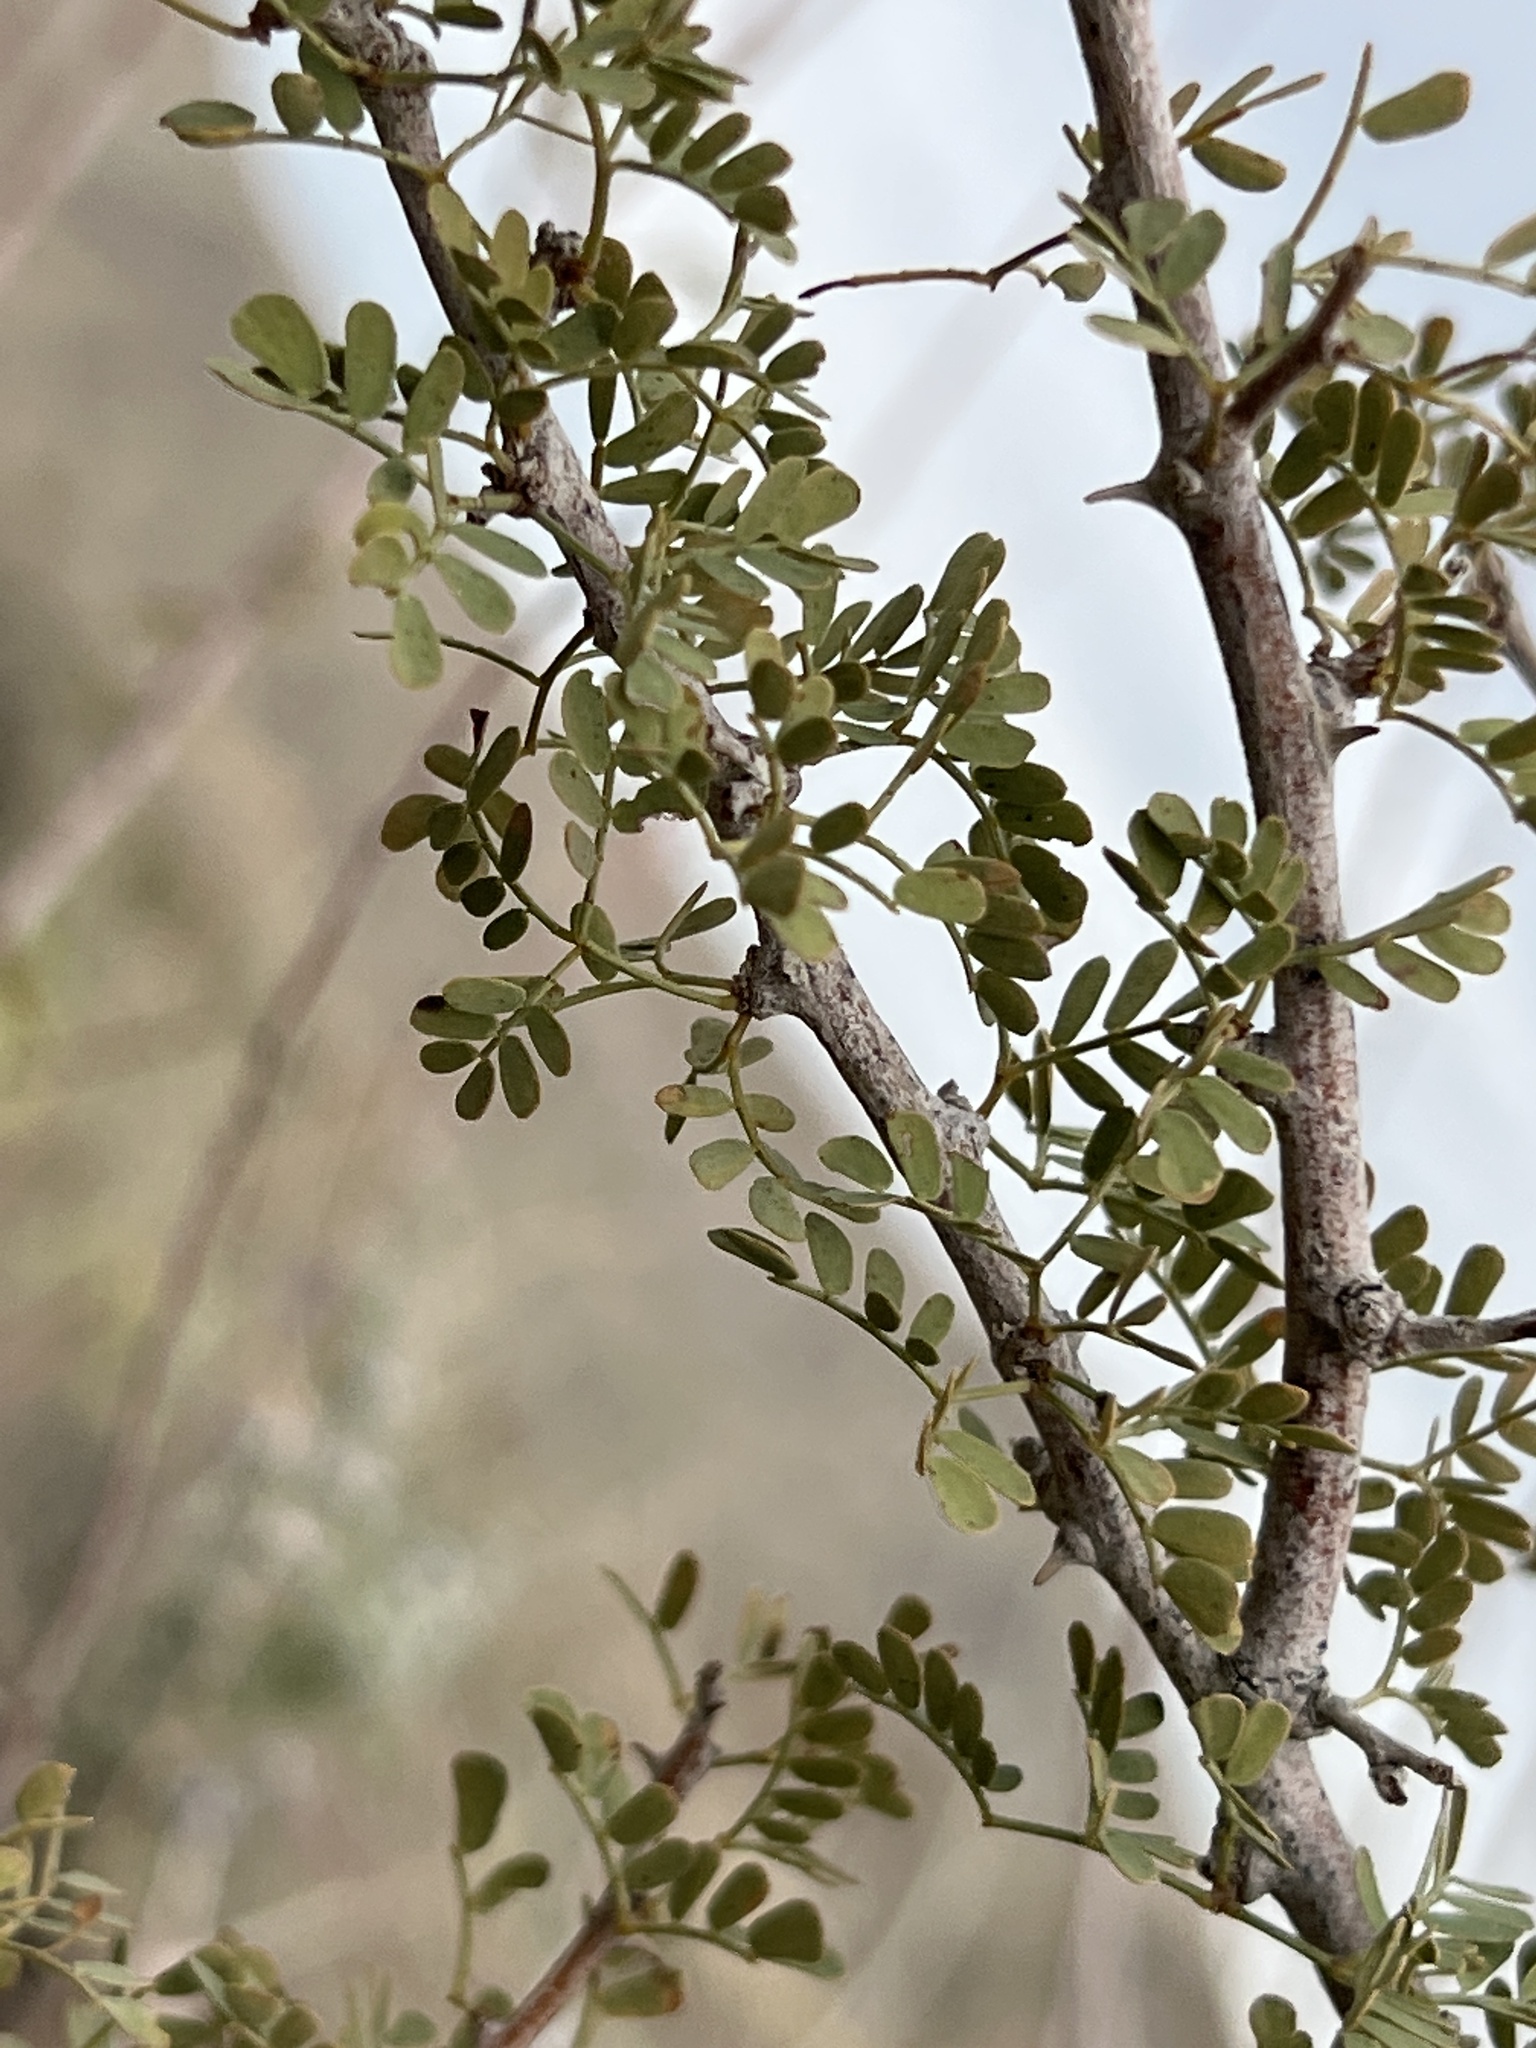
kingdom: Plantae
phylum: Tracheophyta
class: Magnoliopsida
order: Fabales
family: Fabaceae
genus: Senegalia
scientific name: Senegalia greggii
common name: Texas-mimosa
